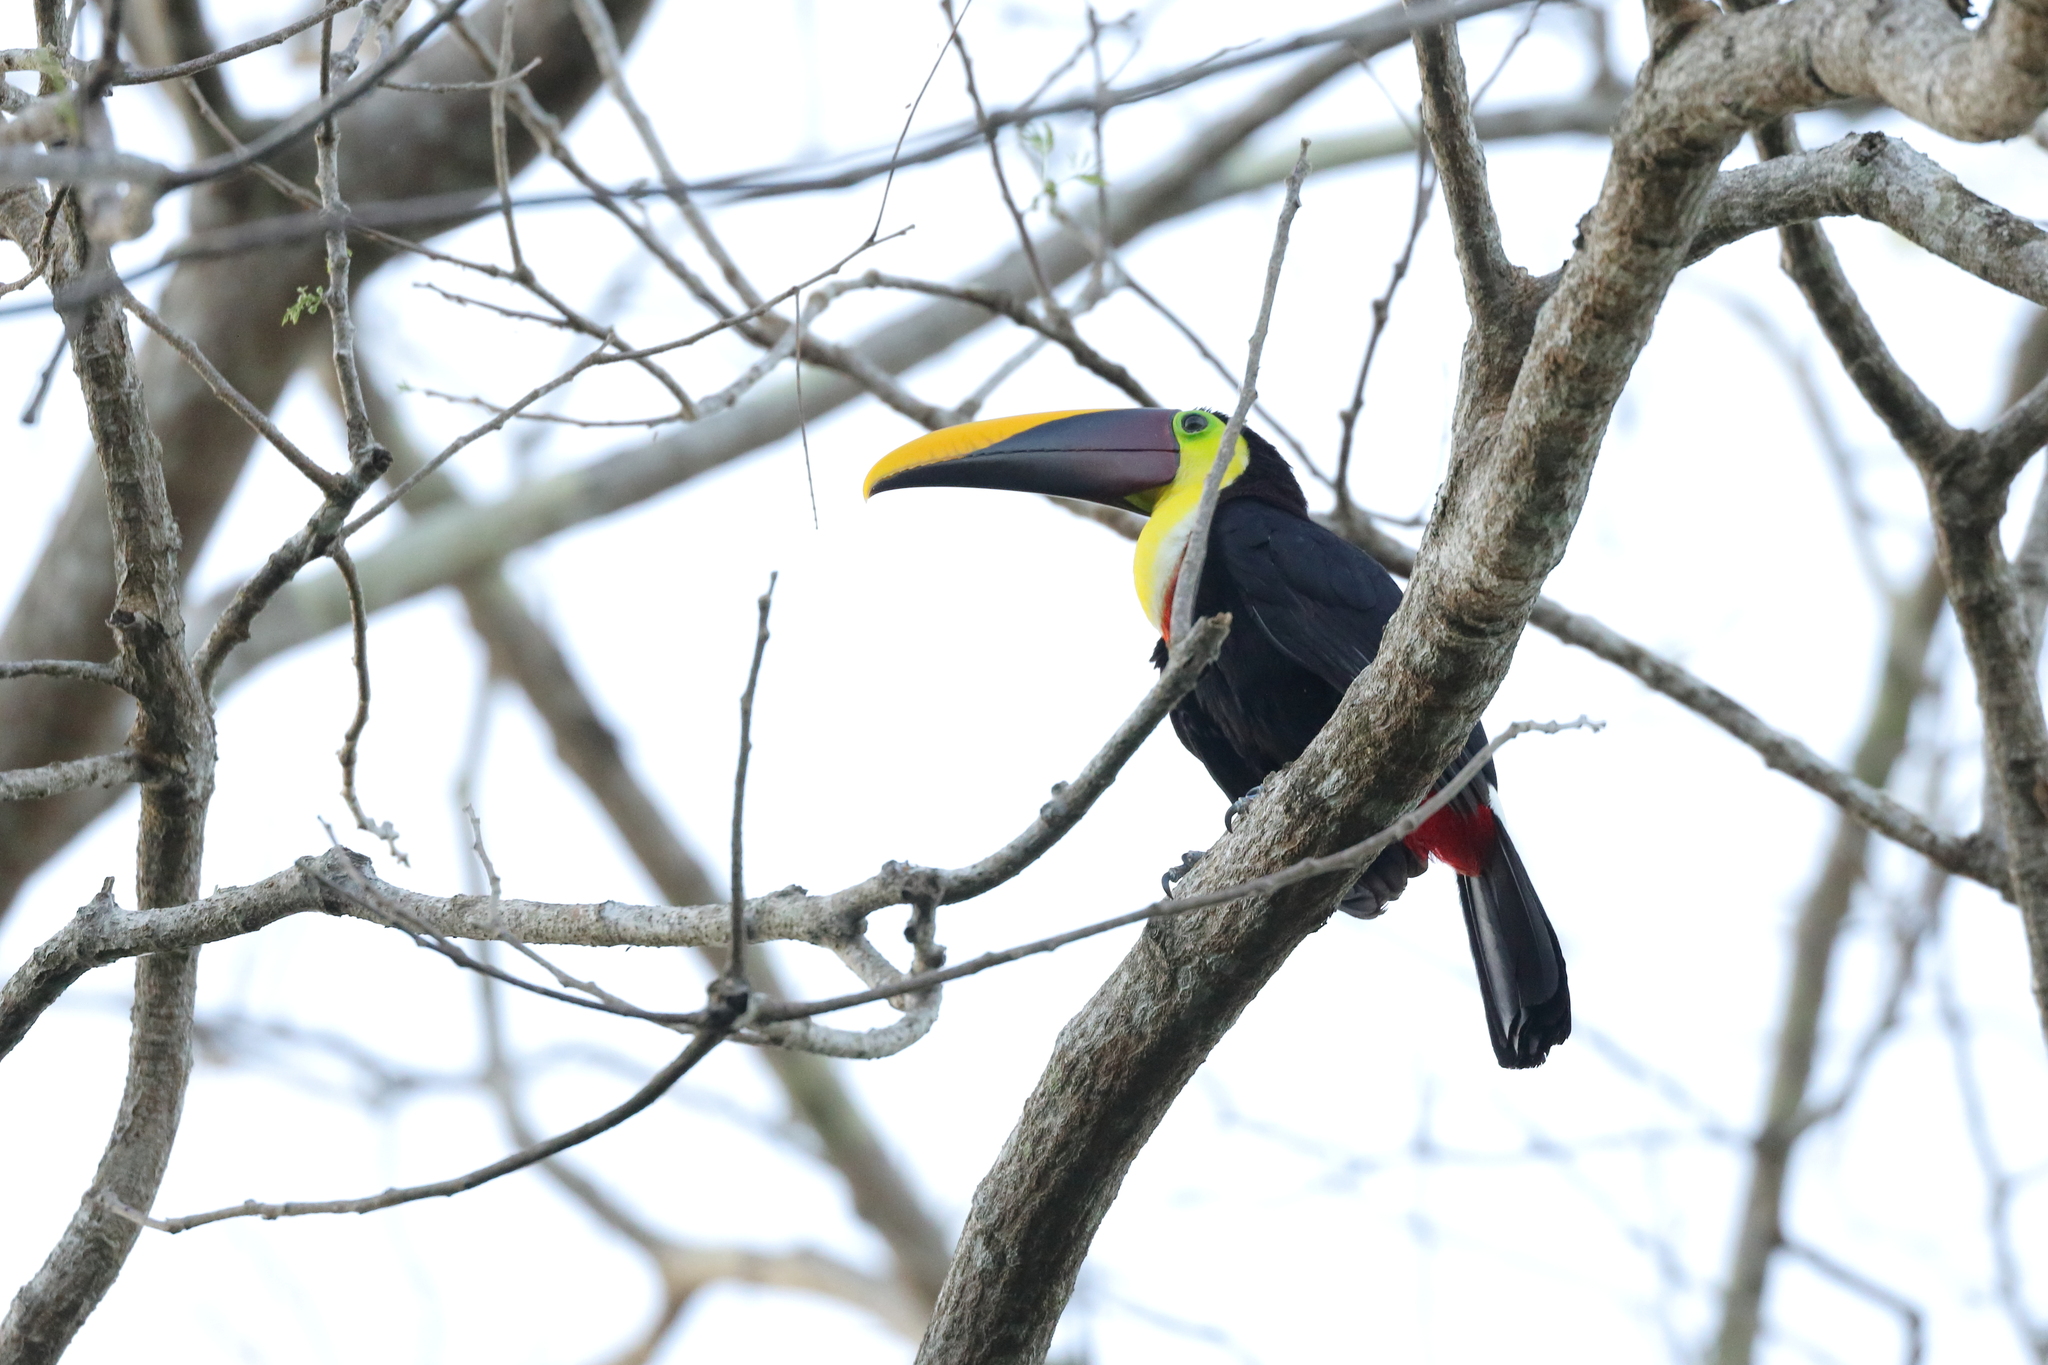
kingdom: Animalia
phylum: Chordata
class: Aves
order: Piciformes
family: Ramphastidae
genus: Ramphastos
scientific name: Ramphastos ambiguus
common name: Yellow-throated toucan
